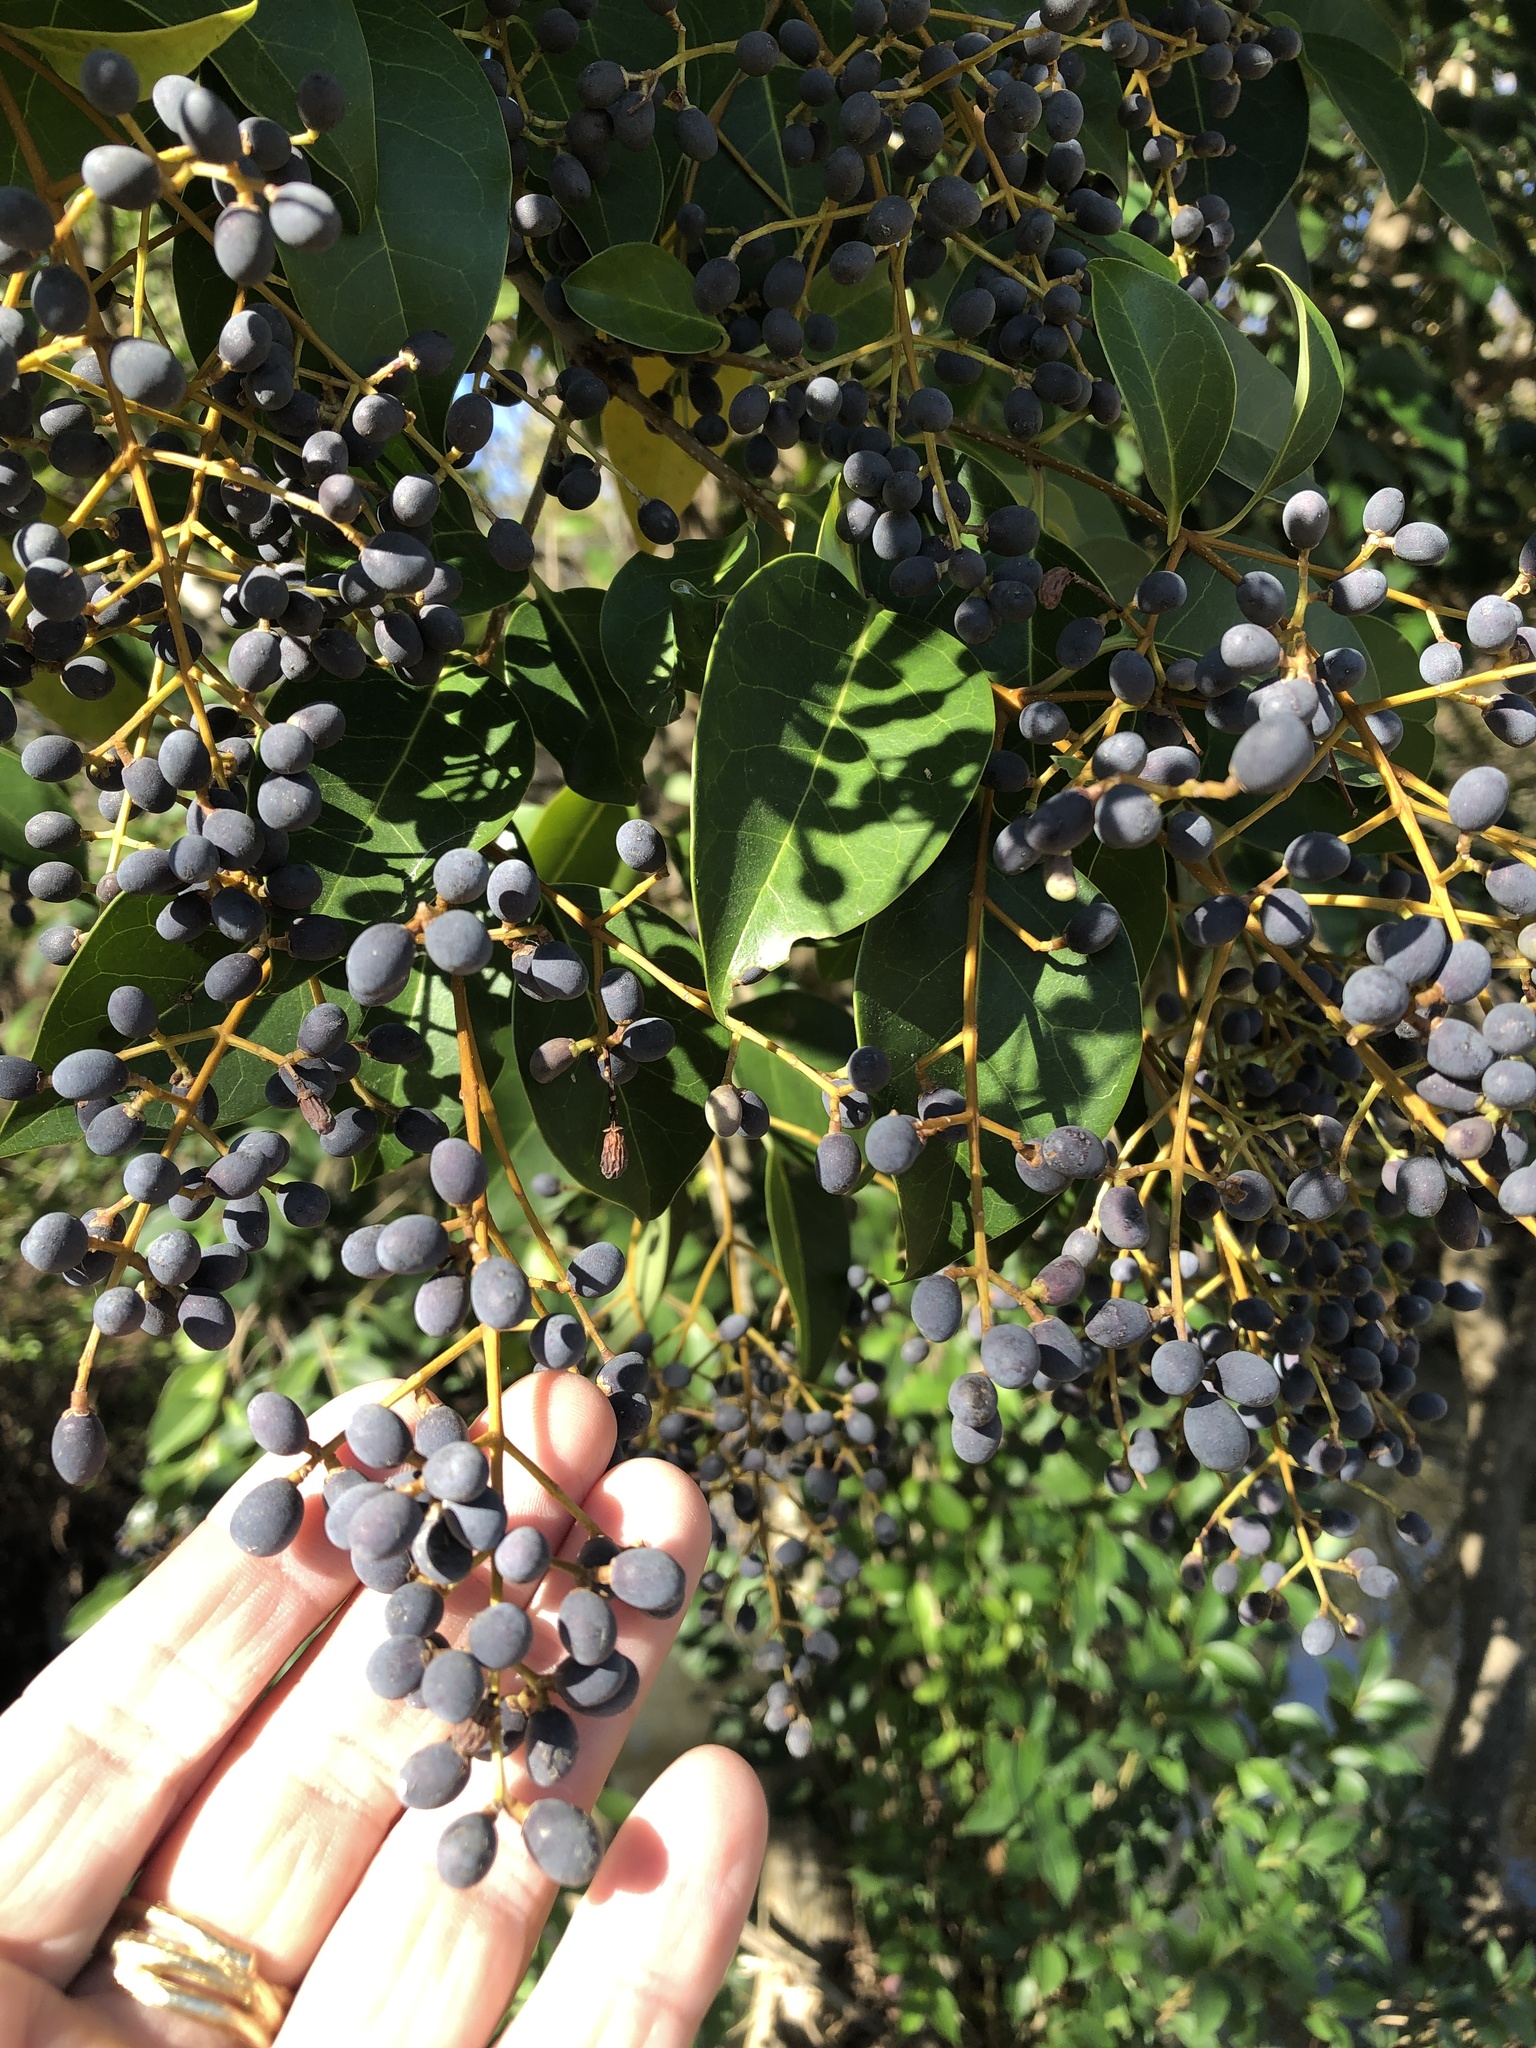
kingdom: Plantae
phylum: Tracheophyta
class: Magnoliopsida
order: Lamiales
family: Oleaceae
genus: Ligustrum
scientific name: Ligustrum lucidum
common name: Glossy privet
